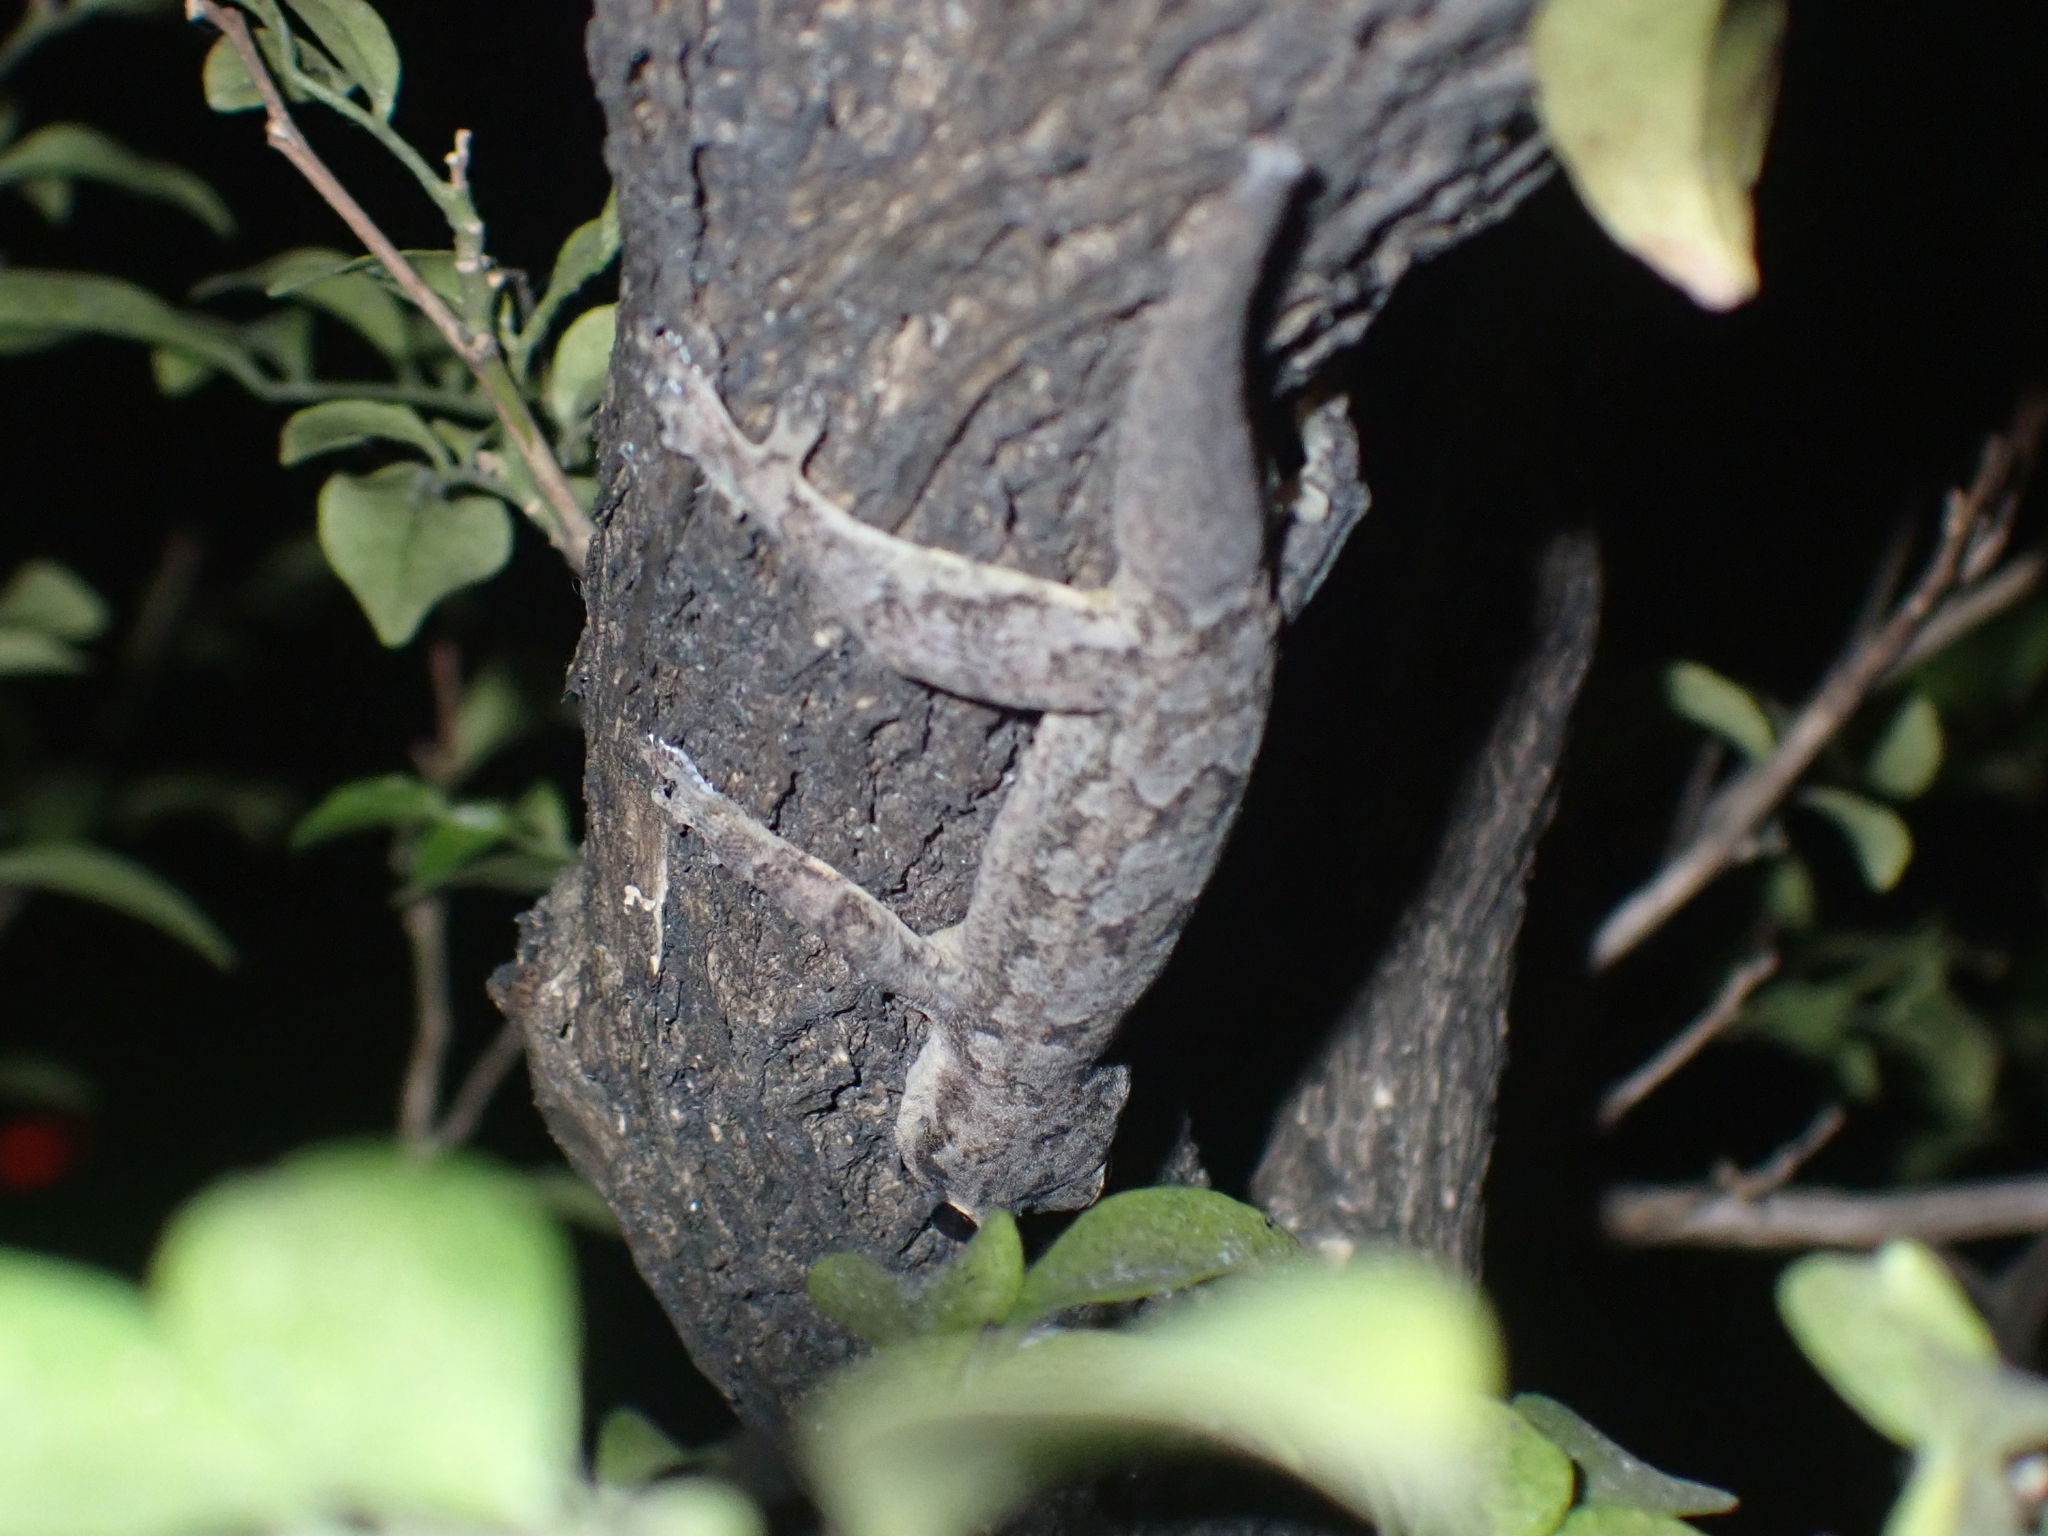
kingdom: Animalia
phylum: Chordata
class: Squamata
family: Gekkonidae
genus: Hemidactylus
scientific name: Hemidactylus platyurus
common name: Flat-tailed house gecko
